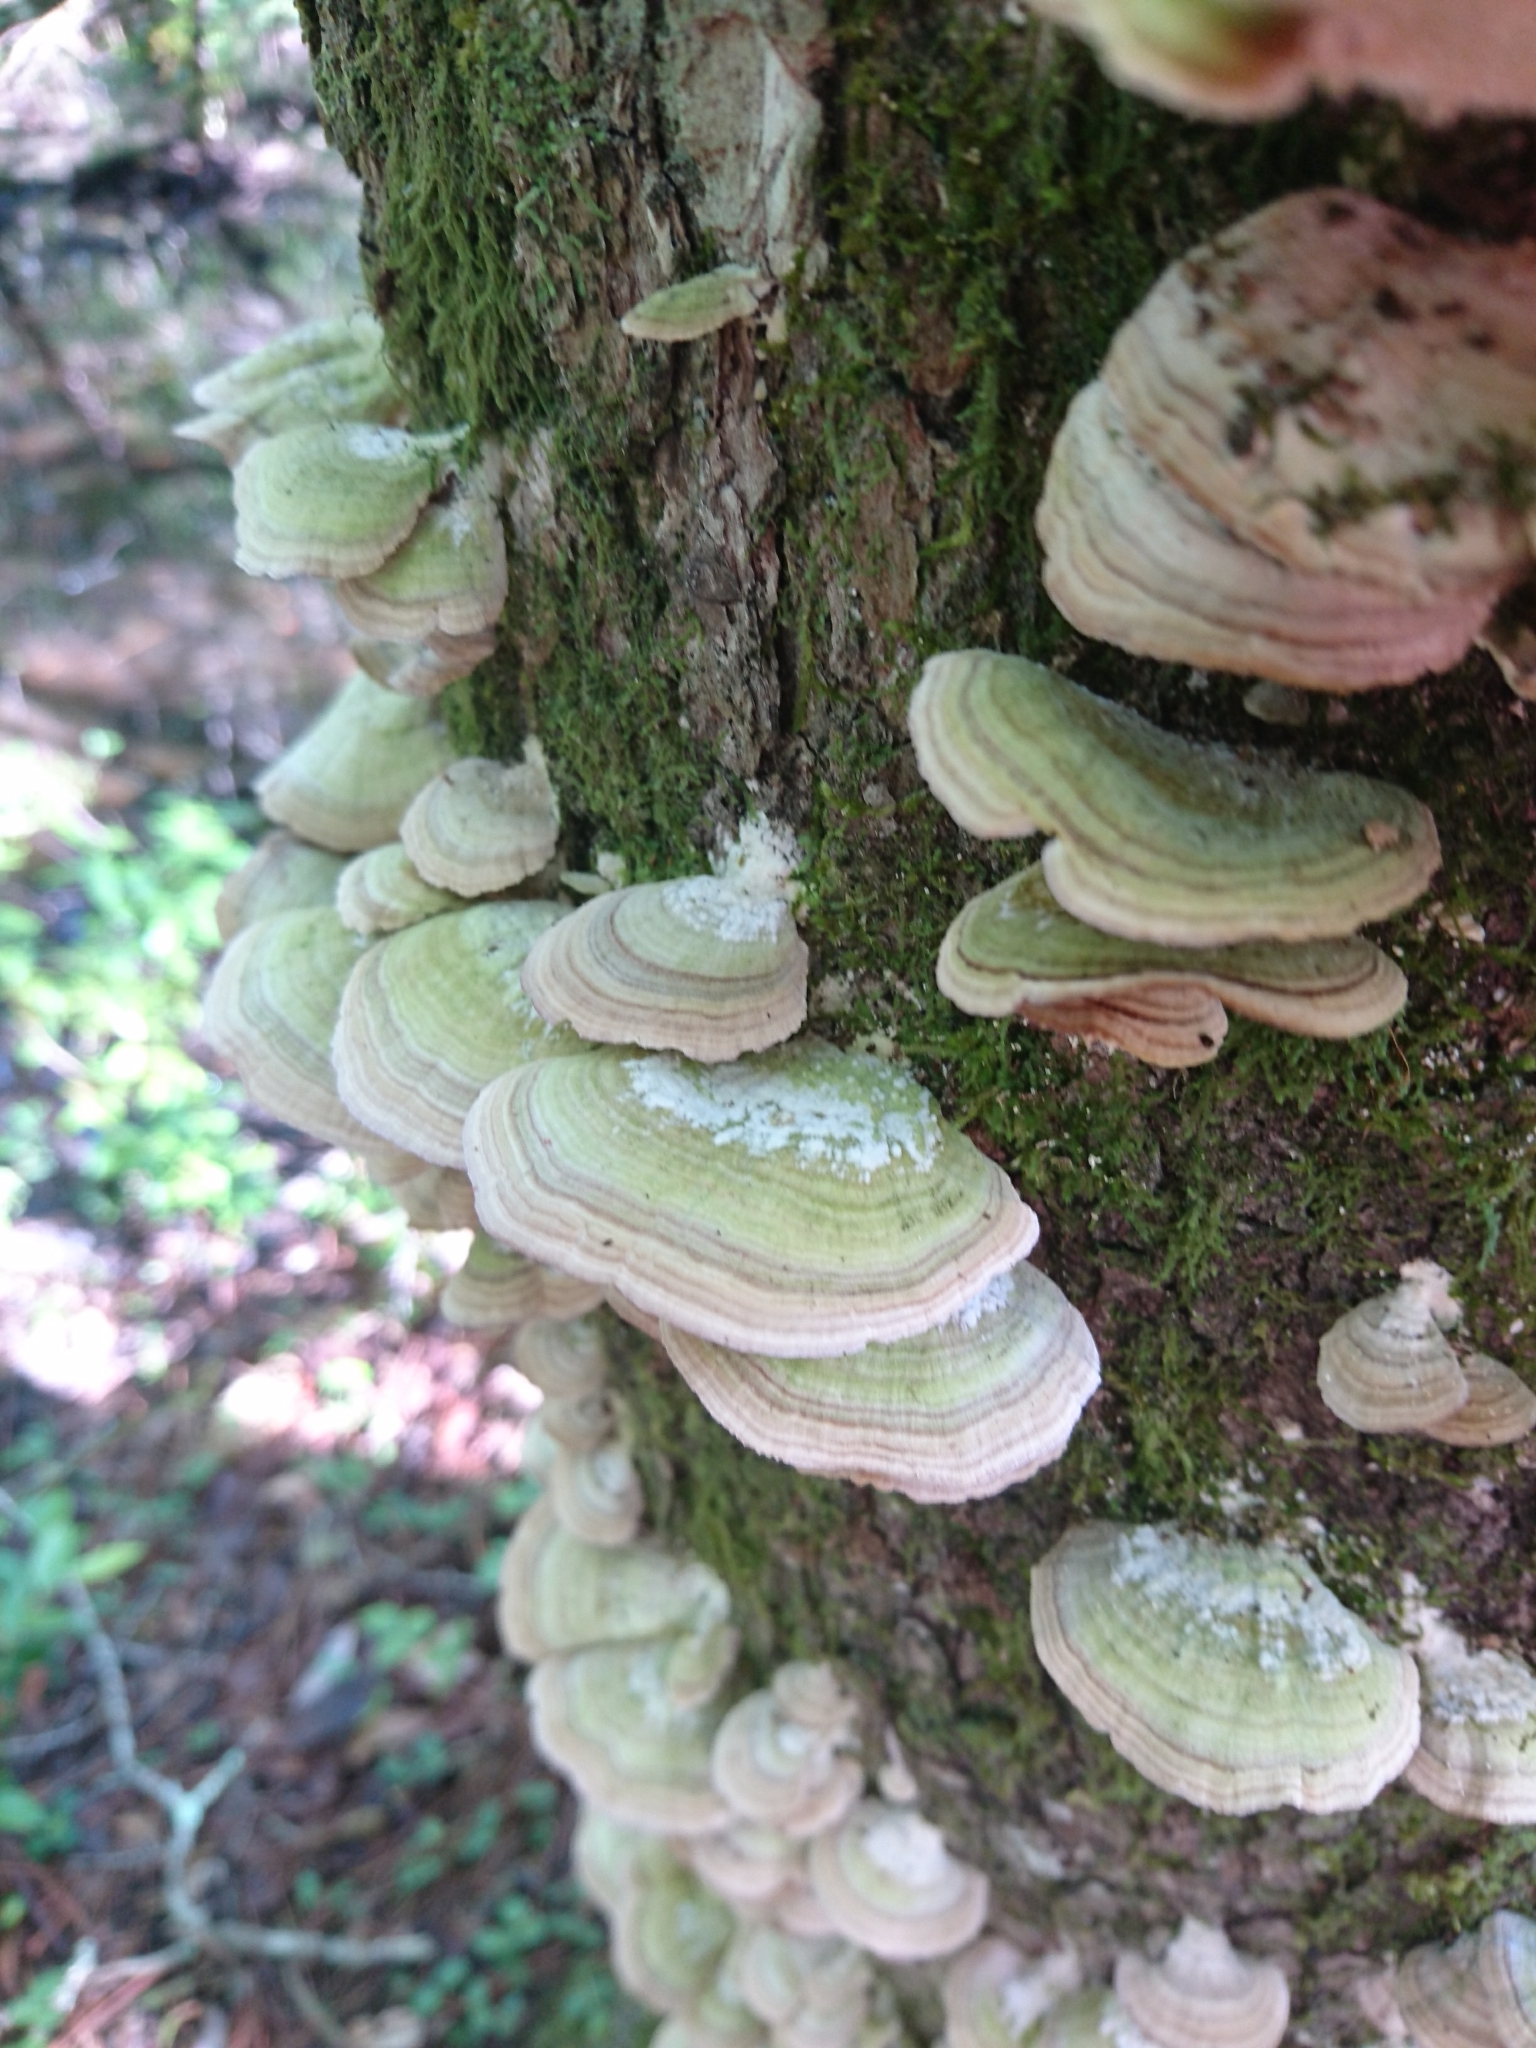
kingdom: Fungi
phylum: Basidiomycota
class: Agaricomycetes
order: Hymenochaetales
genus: Trichaptum
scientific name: Trichaptum biforme
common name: Violet-toothed polypore
